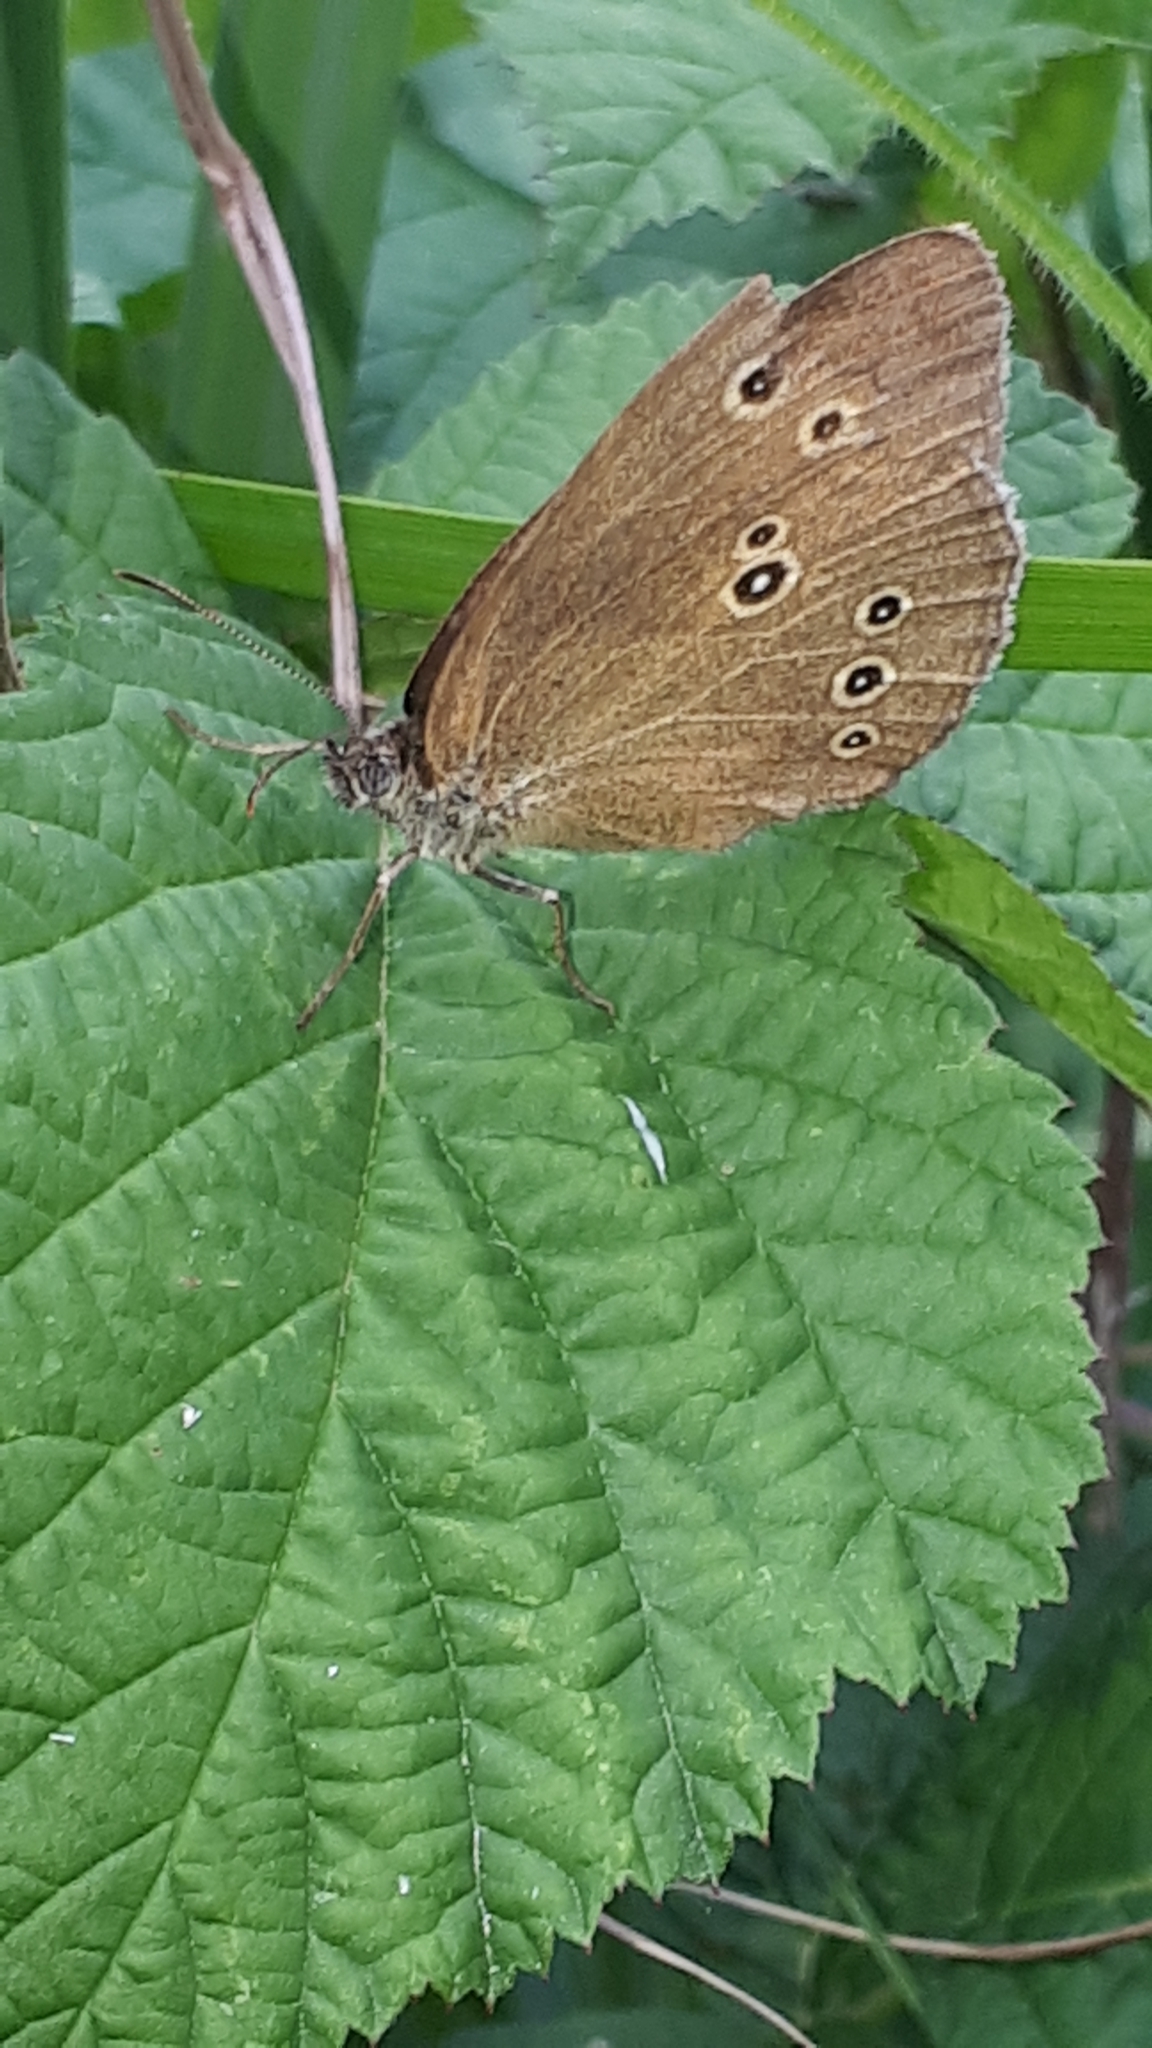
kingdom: Animalia
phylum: Arthropoda
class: Insecta
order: Lepidoptera
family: Nymphalidae
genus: Aphantopus
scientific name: Aphantopus hyperantus
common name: Ringlet
